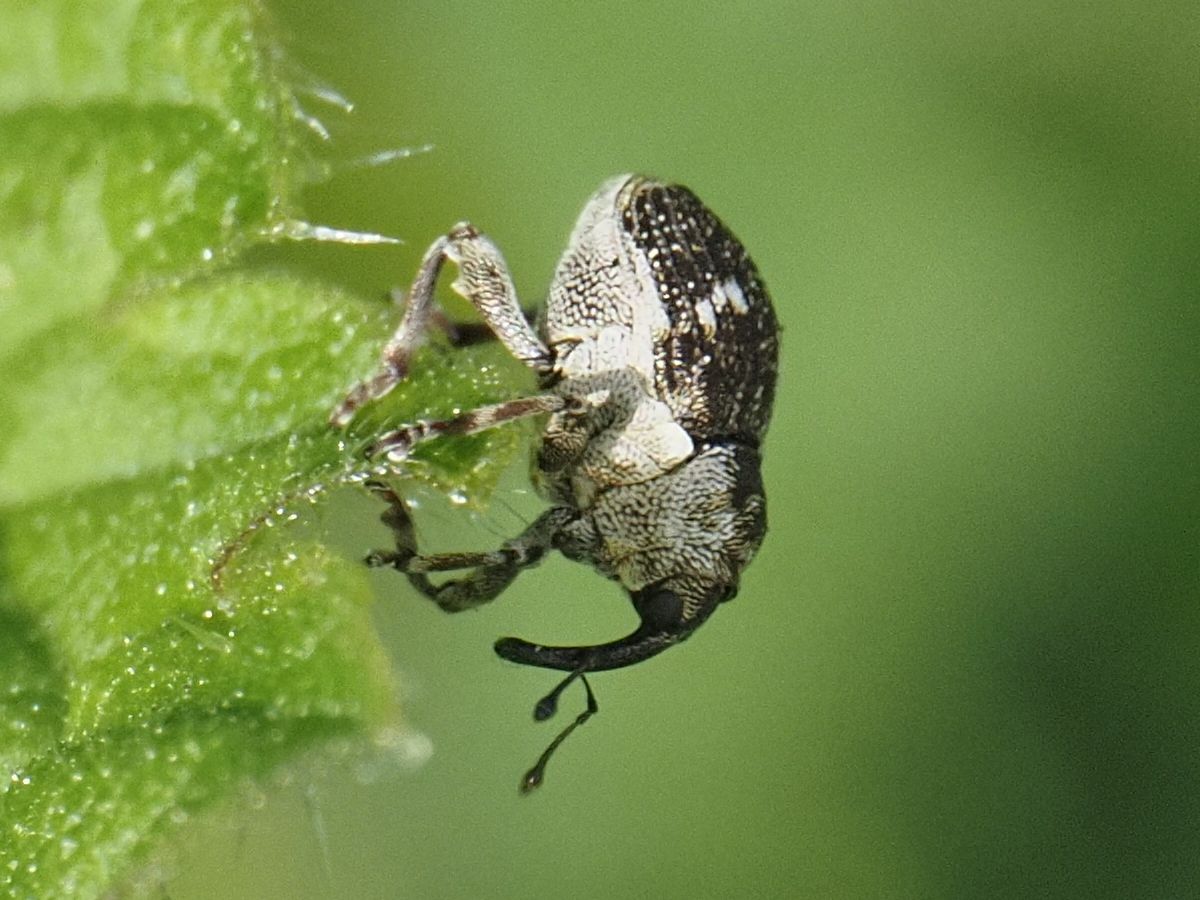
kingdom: Animalia
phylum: Arthropoda
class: Insecta
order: Coleoptera
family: Curculionidae
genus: Nedyus
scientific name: Nedyus quadrimaculatus
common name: Small nettle weevil
